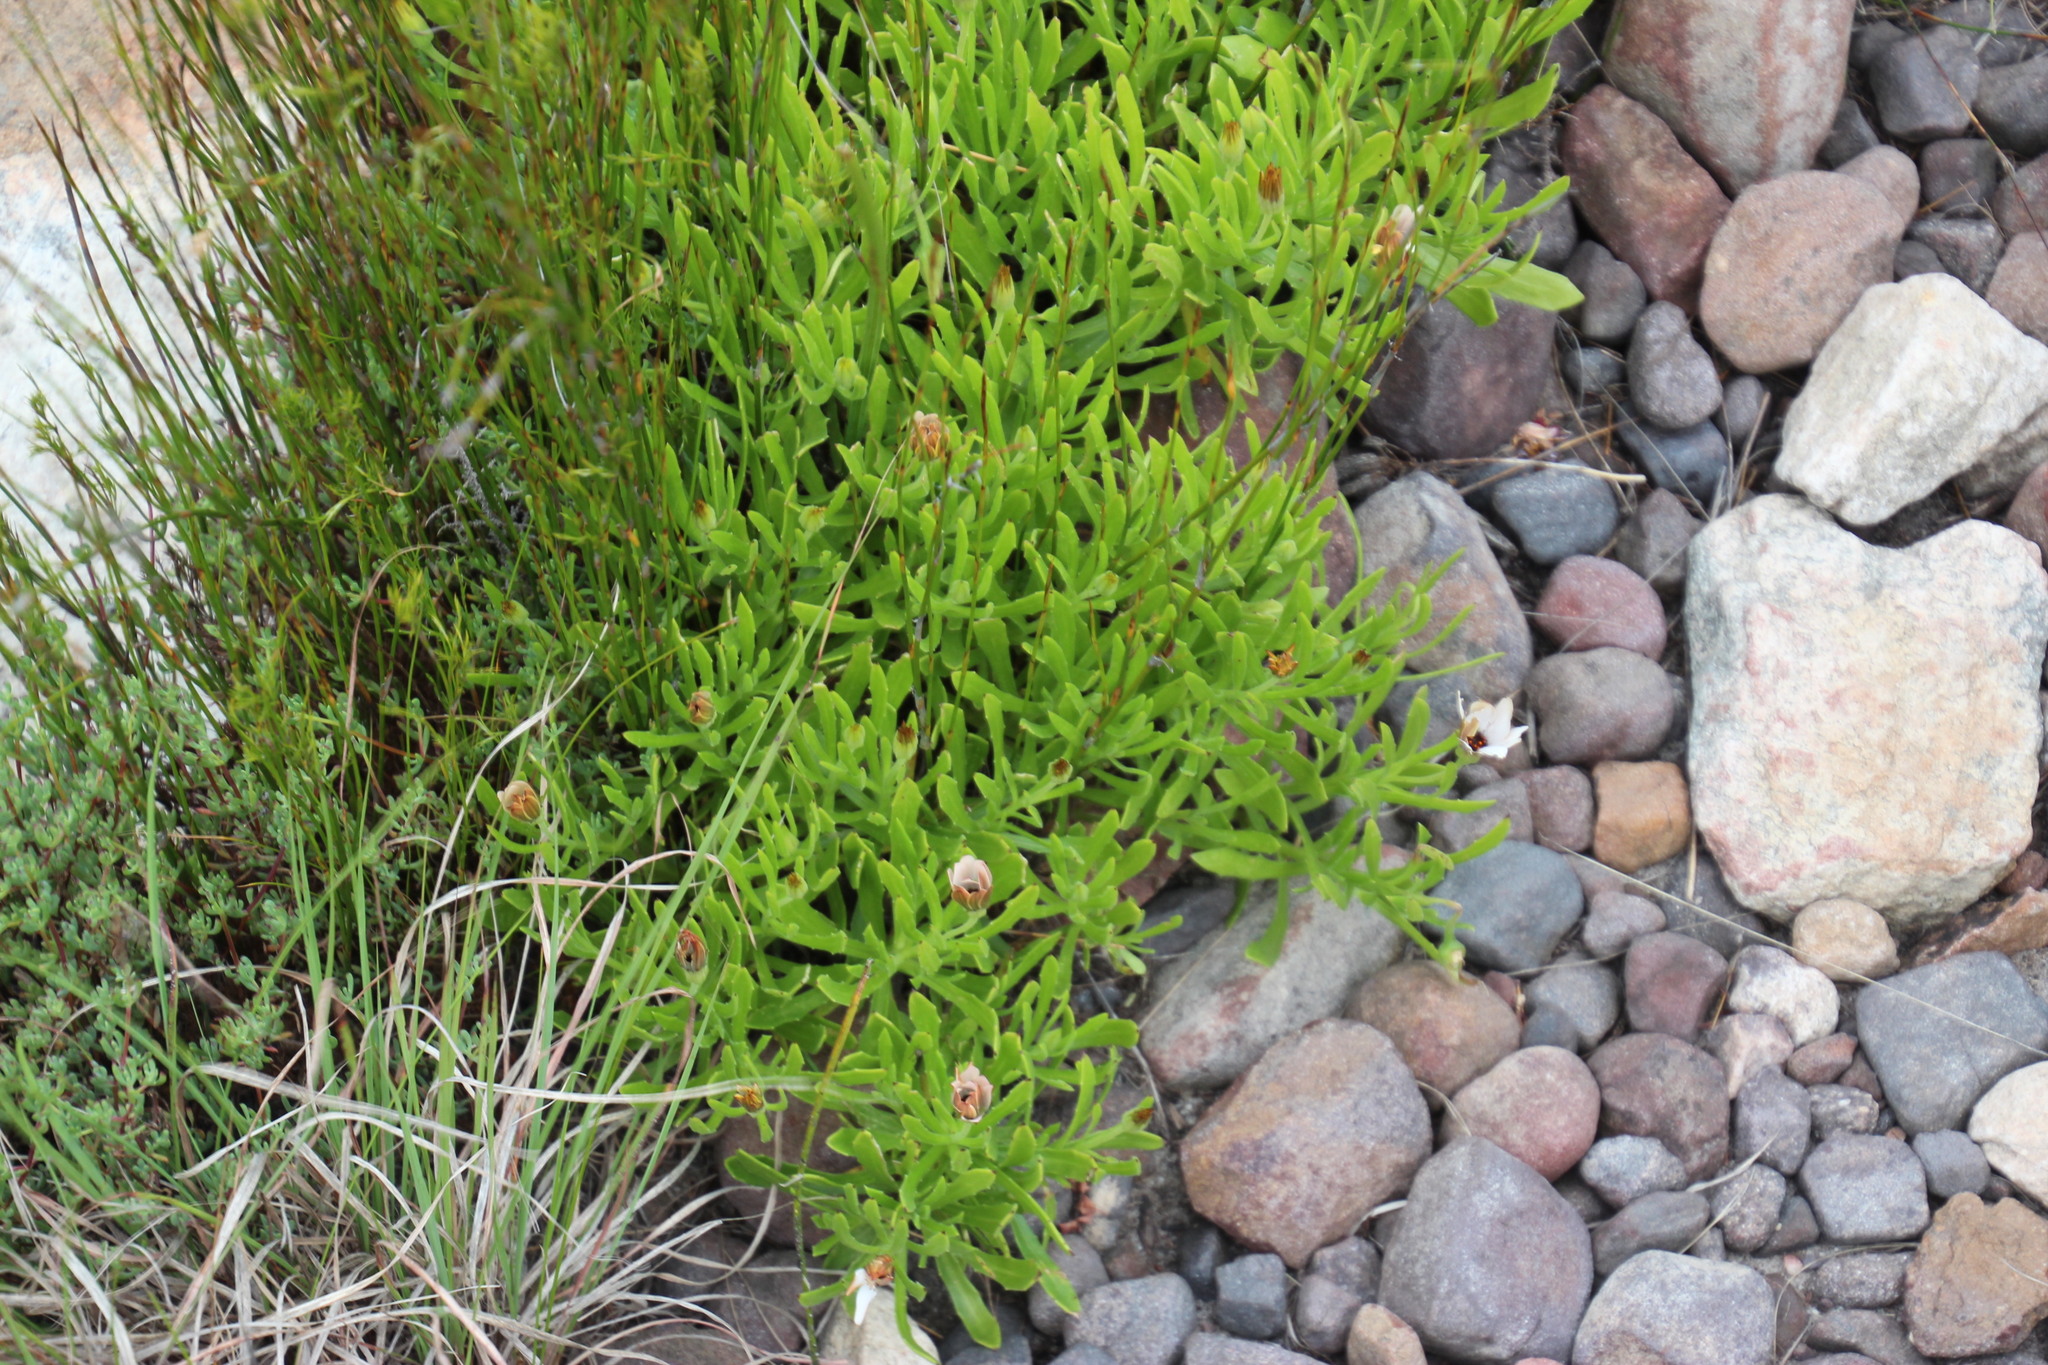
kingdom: Plantae
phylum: Tracheophyta
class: Magnoliopsida
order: Asterales
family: Asteraceae
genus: Dimorphotheca
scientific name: Dimorphotheca acutifolia
